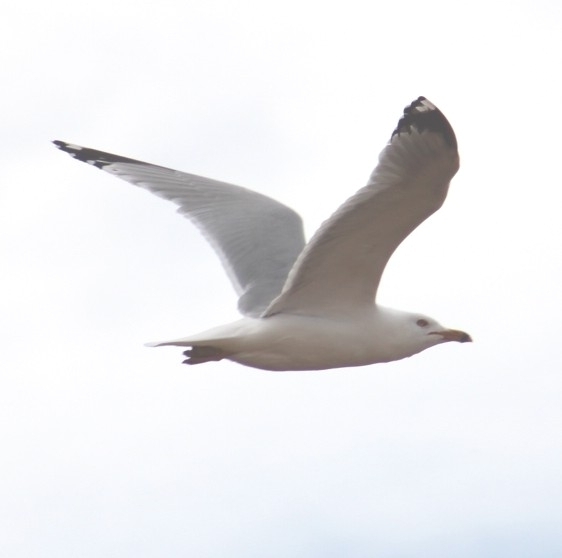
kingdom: Animalia
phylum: Chordata
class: Aves
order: Charadriiformes
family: Laridae
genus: Larus
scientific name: Larus delawarensis
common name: Ring-billed gull
